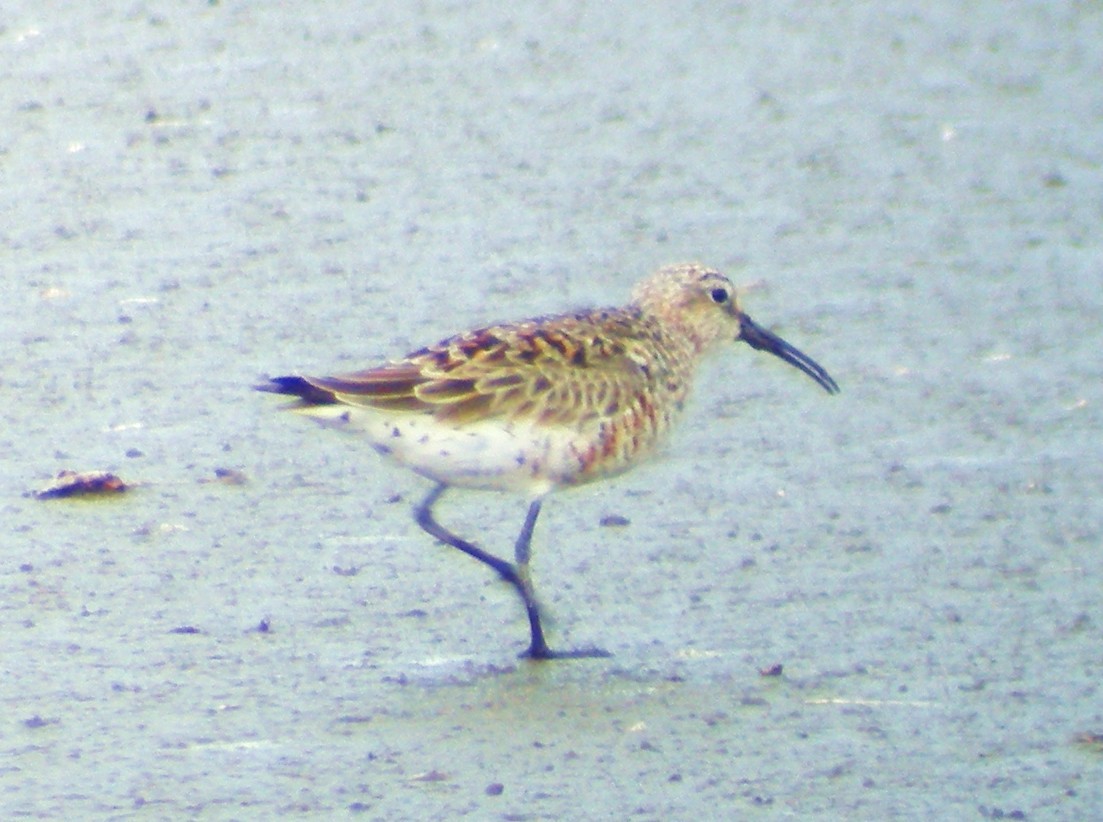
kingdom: Animalia
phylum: Chordata
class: Aves
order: Charadriiformes
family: Scolopacidae
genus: Calidris
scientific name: Calidris ferruginea
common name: Curlew sandpiper
